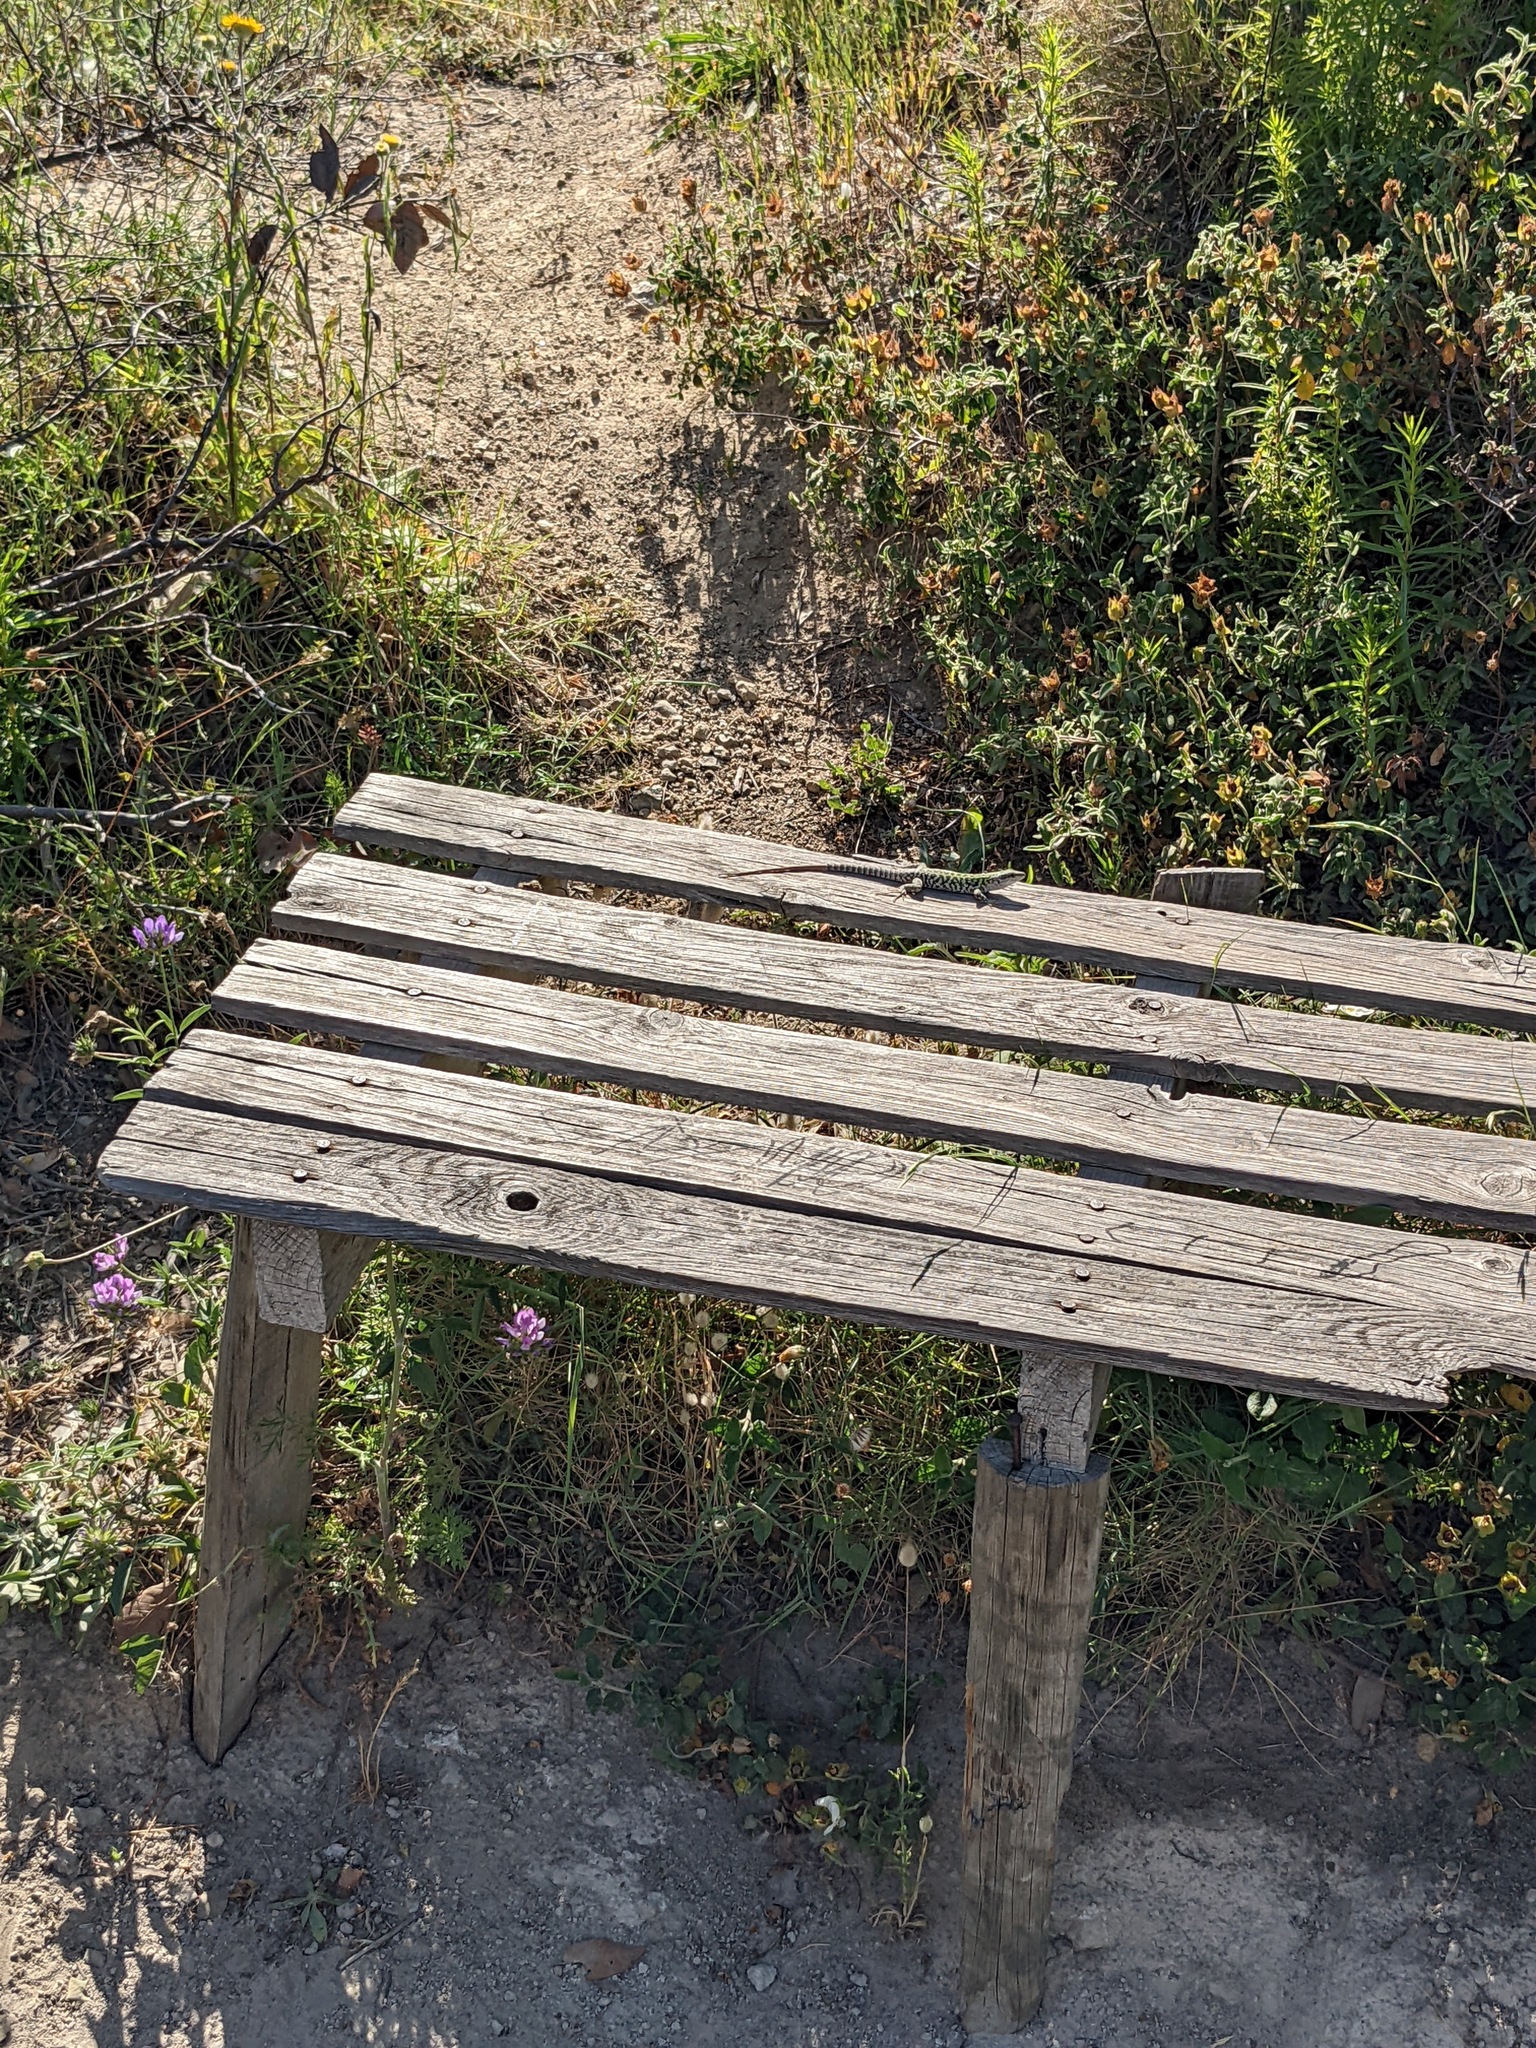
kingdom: Animalia
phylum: Chordata
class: Squamata
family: Lacertidae
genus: Podarcis
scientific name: Podarcis siculus
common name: Italian wall lizard
